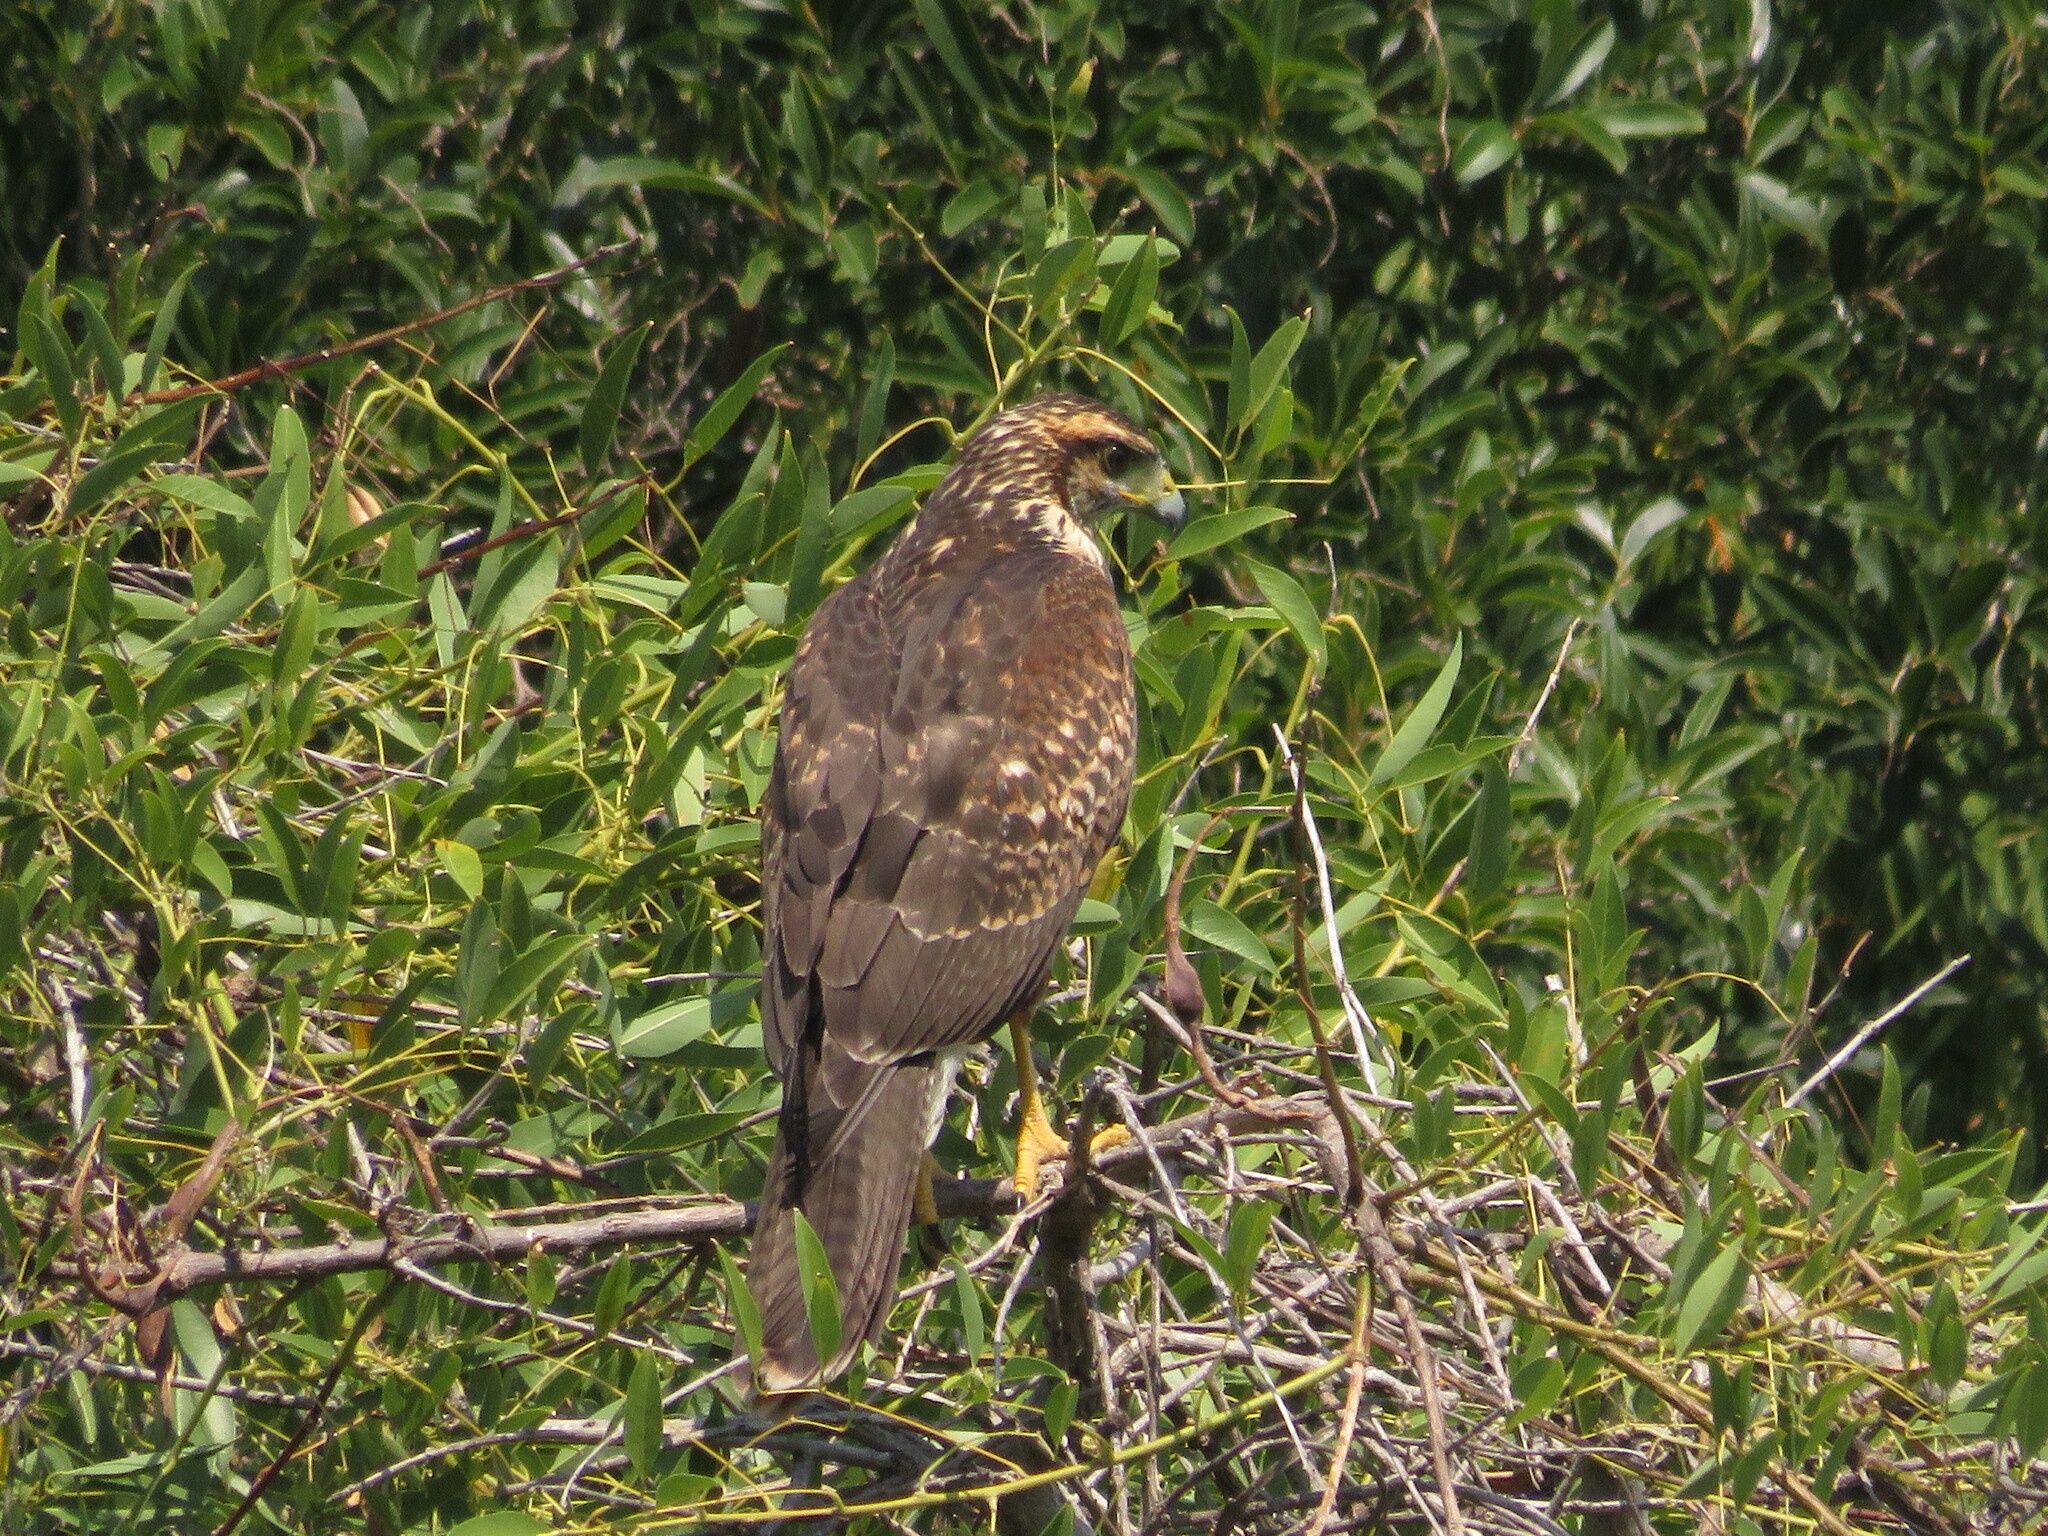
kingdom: Animalia
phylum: Chordata
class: Aves
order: Accipitriformes
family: Accipitridae
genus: Parabuteo
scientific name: Parabuteo unicinctus
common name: Harris's hawk
